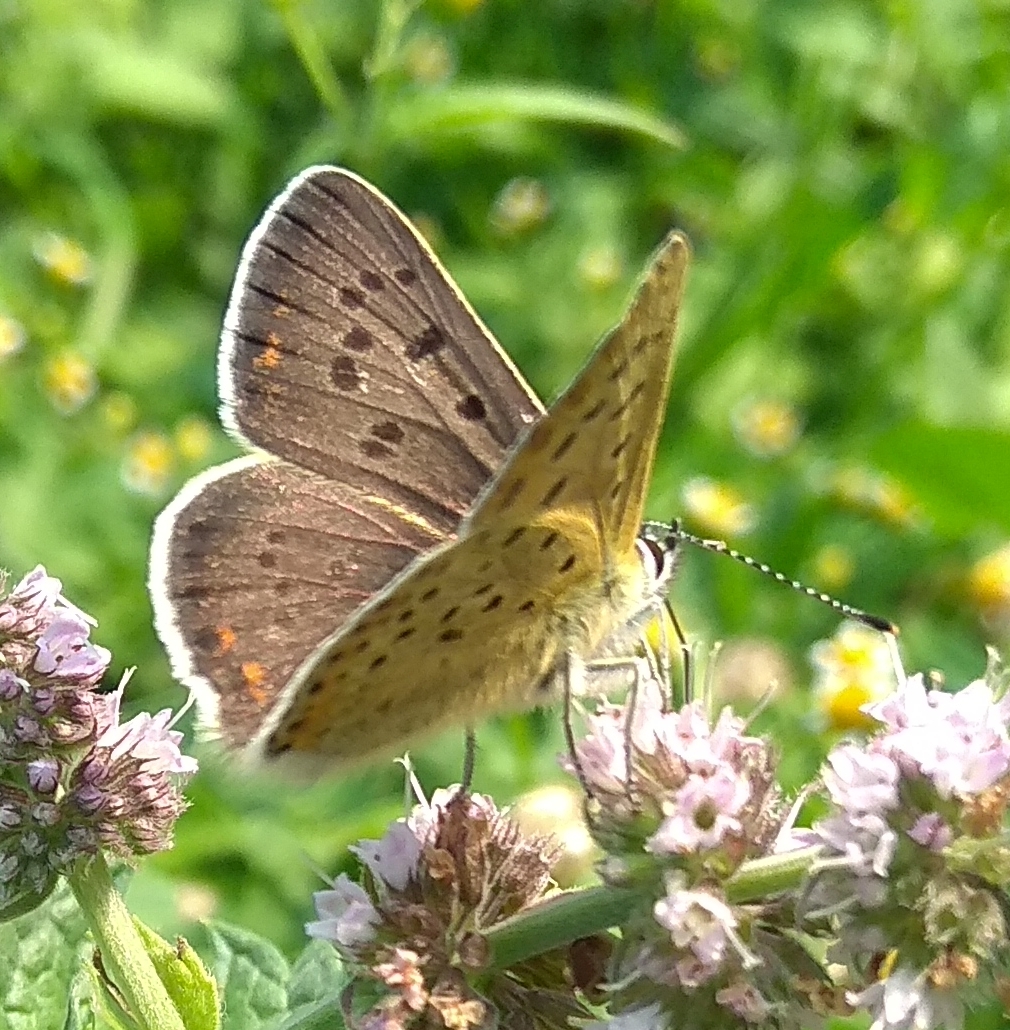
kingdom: Animalia
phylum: Arthropoda
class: Insecta
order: Lepidoptera
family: Lycaenidae
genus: Loweia
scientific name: Loweia tityrus
